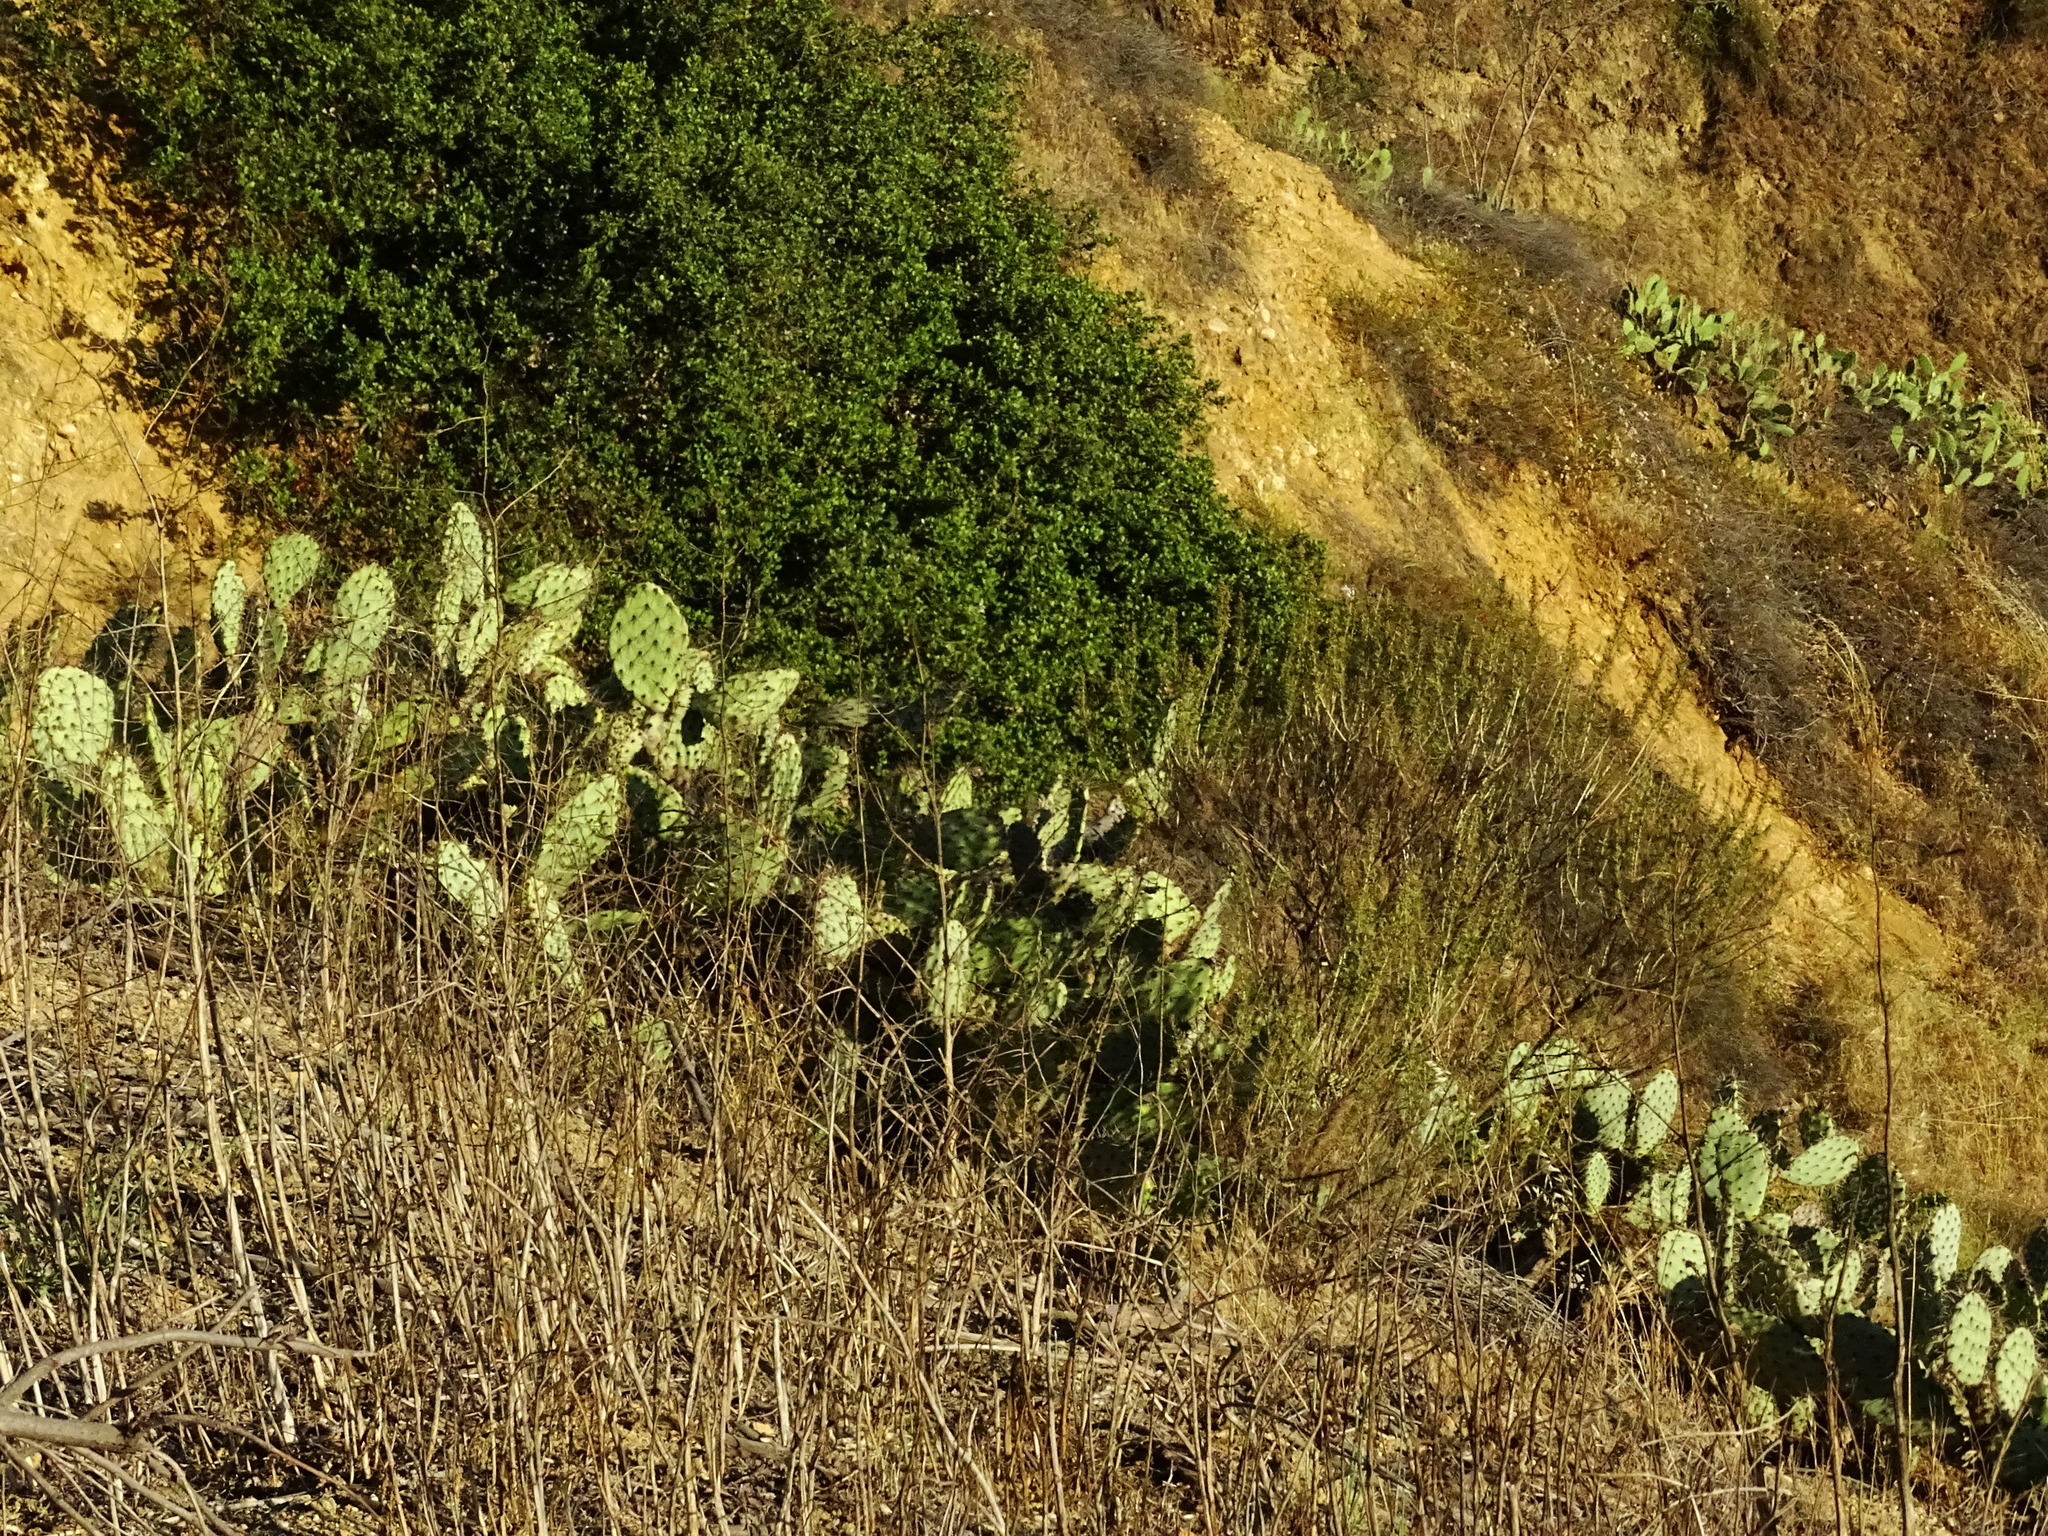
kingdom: Plantae
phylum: Tracheophyta
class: Magnoliopsida
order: Caryophyllales
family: Cactaceae
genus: Opuntia
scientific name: Opuntia littoralis
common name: Coastal prickly-pear
